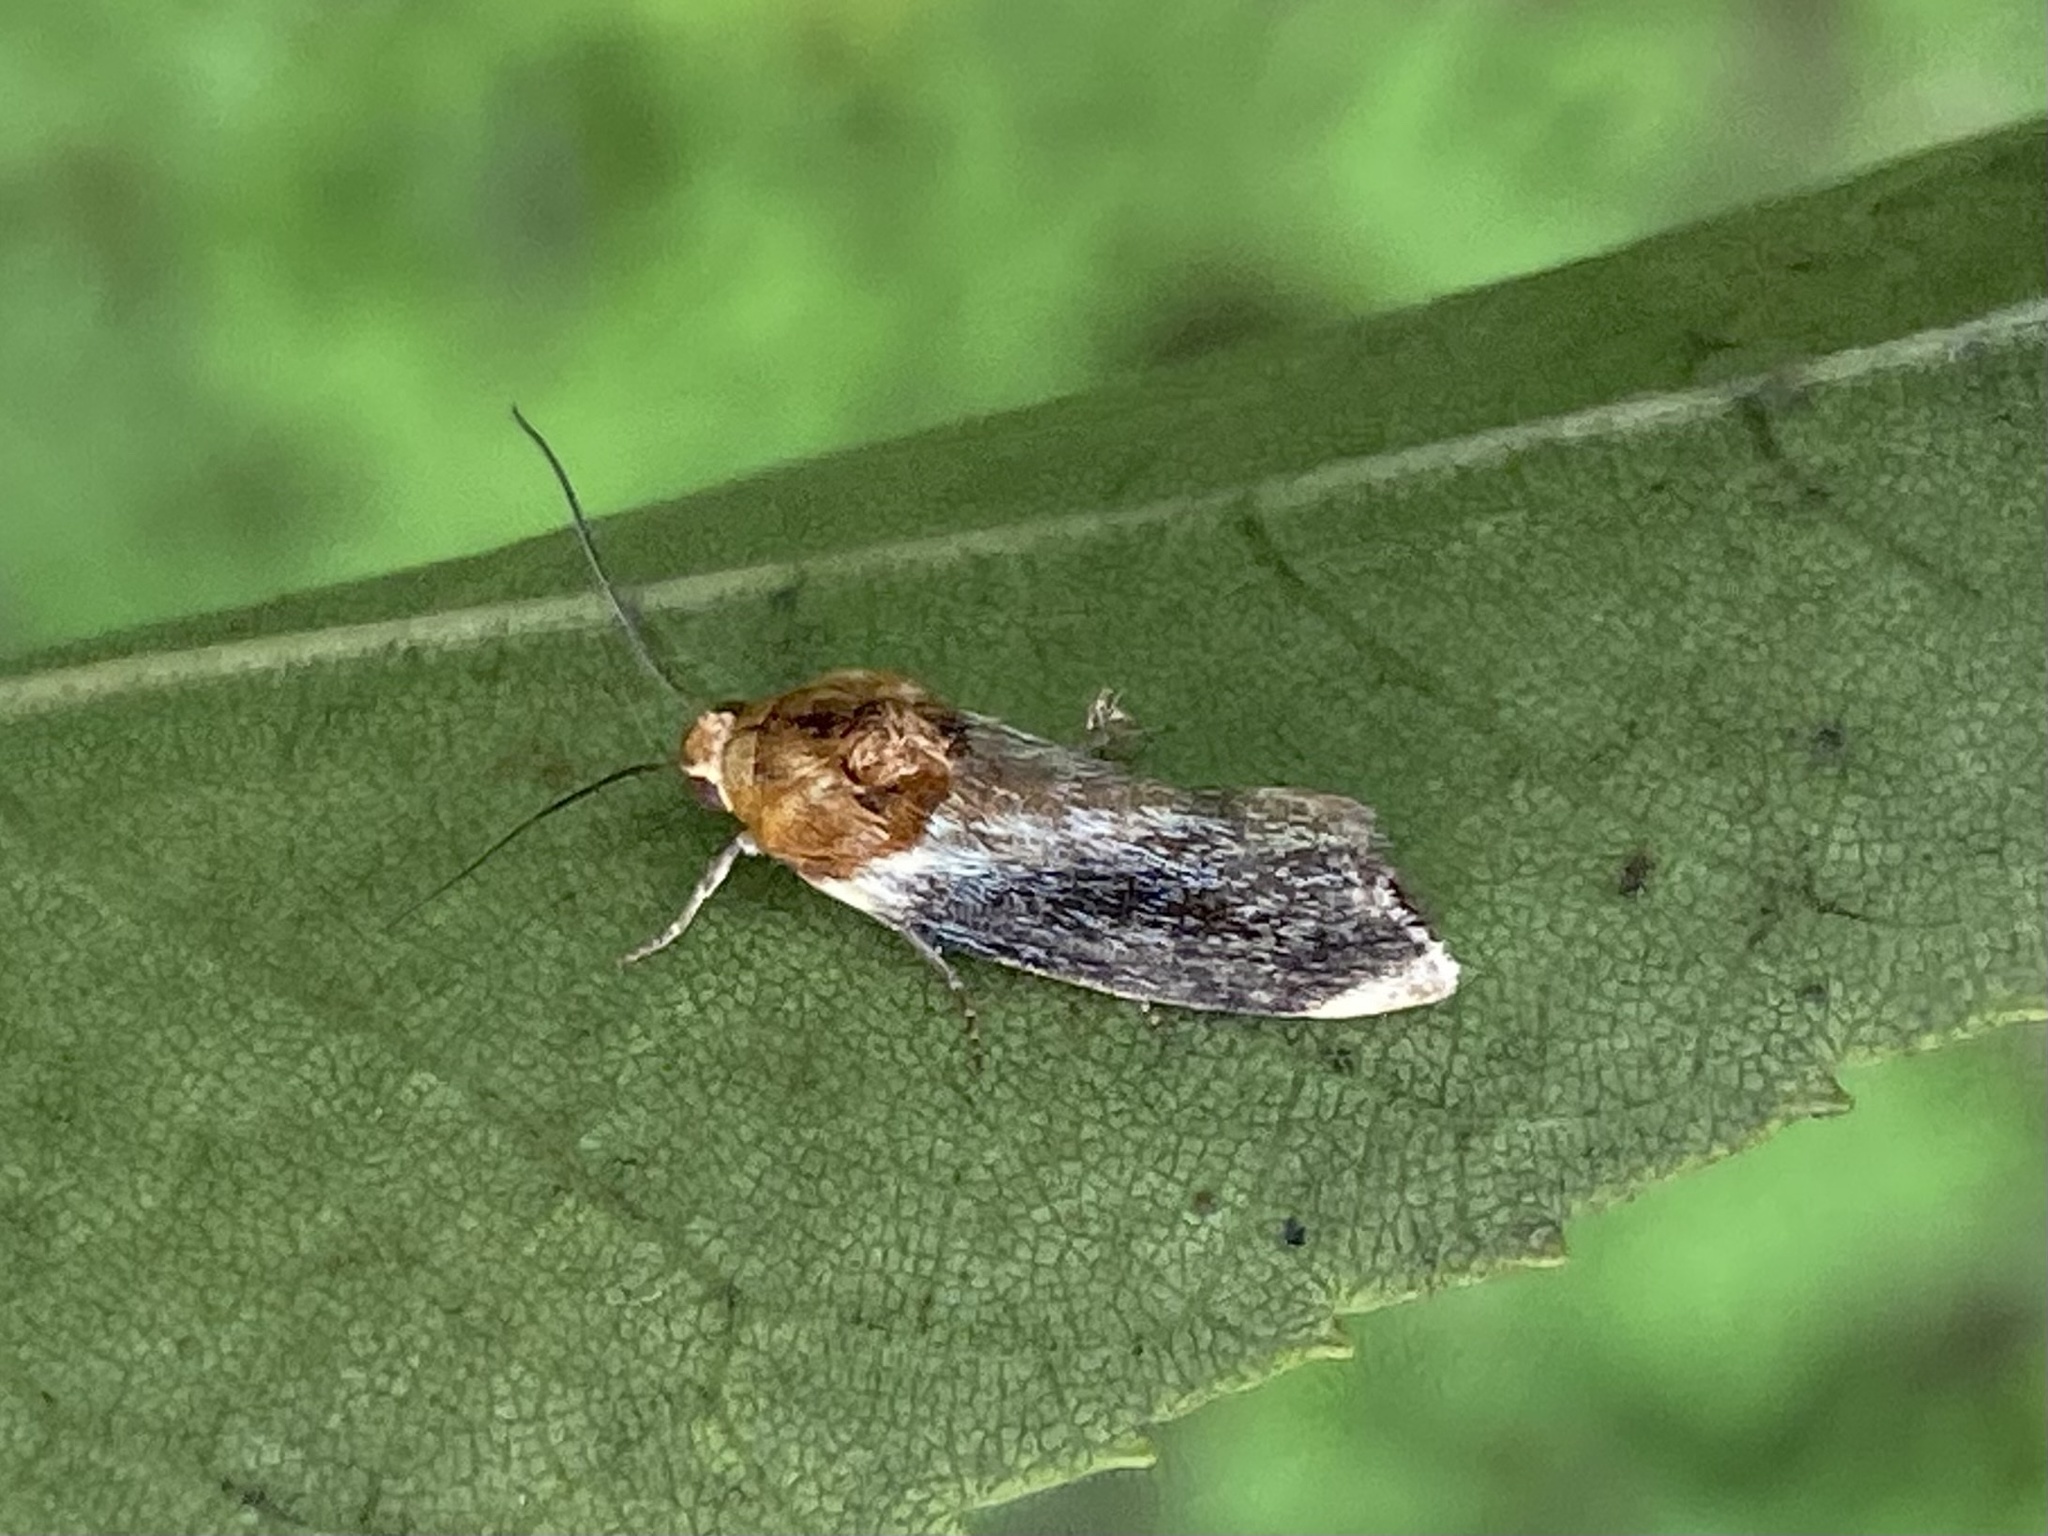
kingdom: Animalia
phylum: Arthropoda
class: Insecta
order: Lepidoptera
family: Noctuidae
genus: Spragueia
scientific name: Spragueia apicalis
